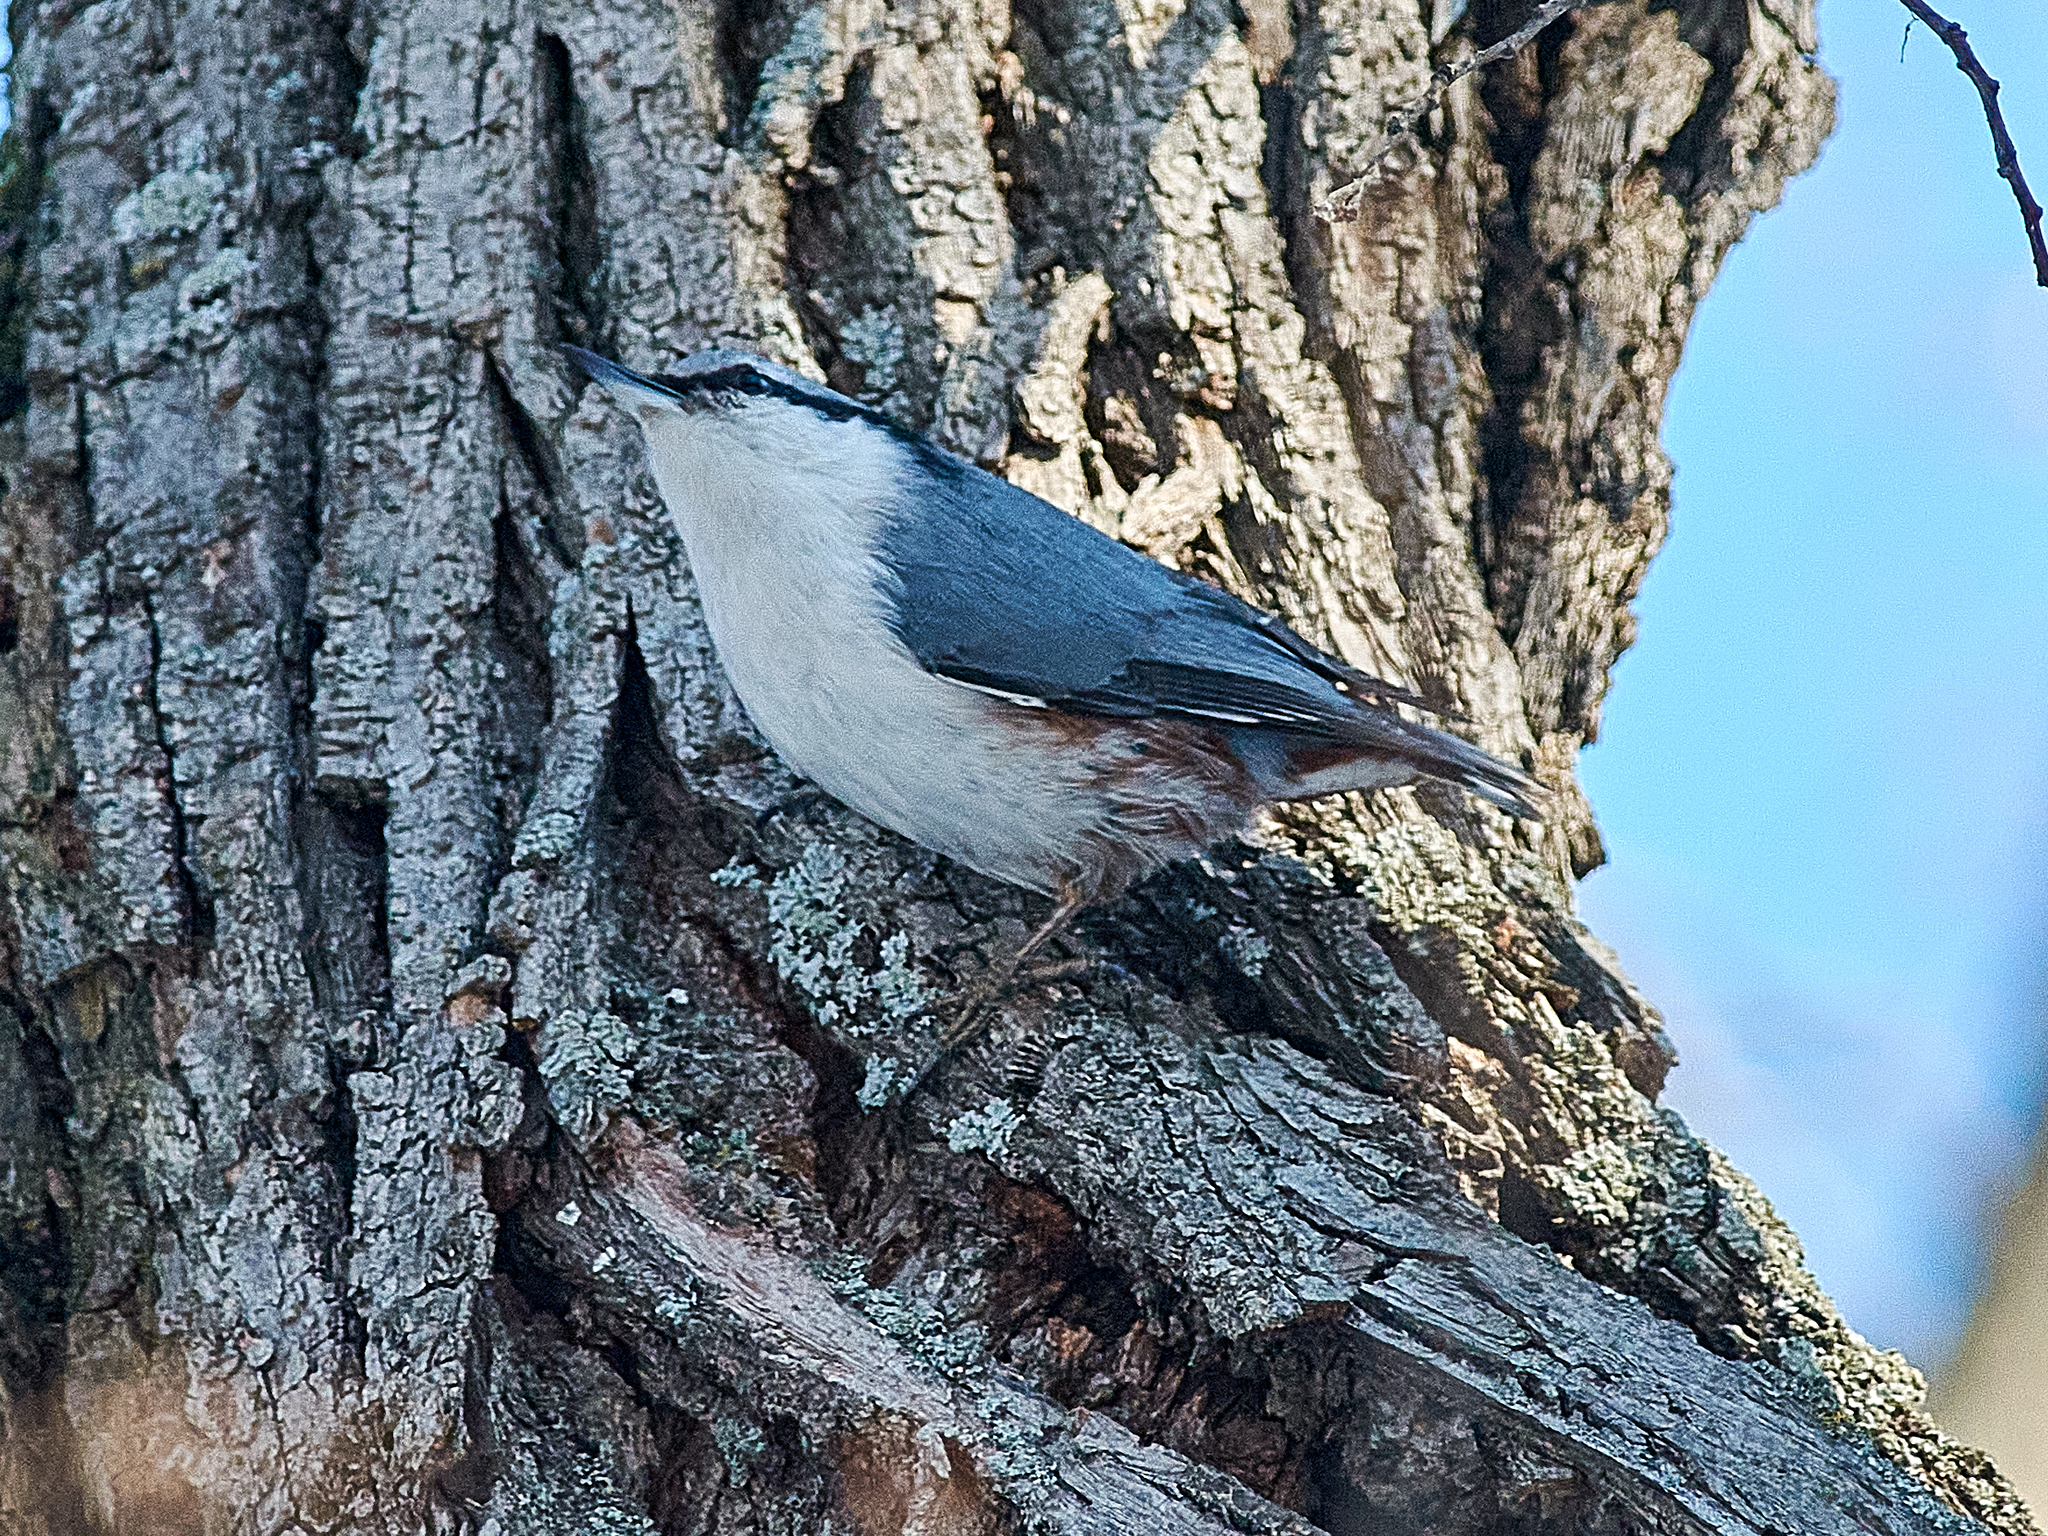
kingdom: Animalia
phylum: Chordata
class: Aves
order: Passeriformes
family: Sittidae
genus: Sitta
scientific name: Sitta europaea
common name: Eurasian nuthatch
